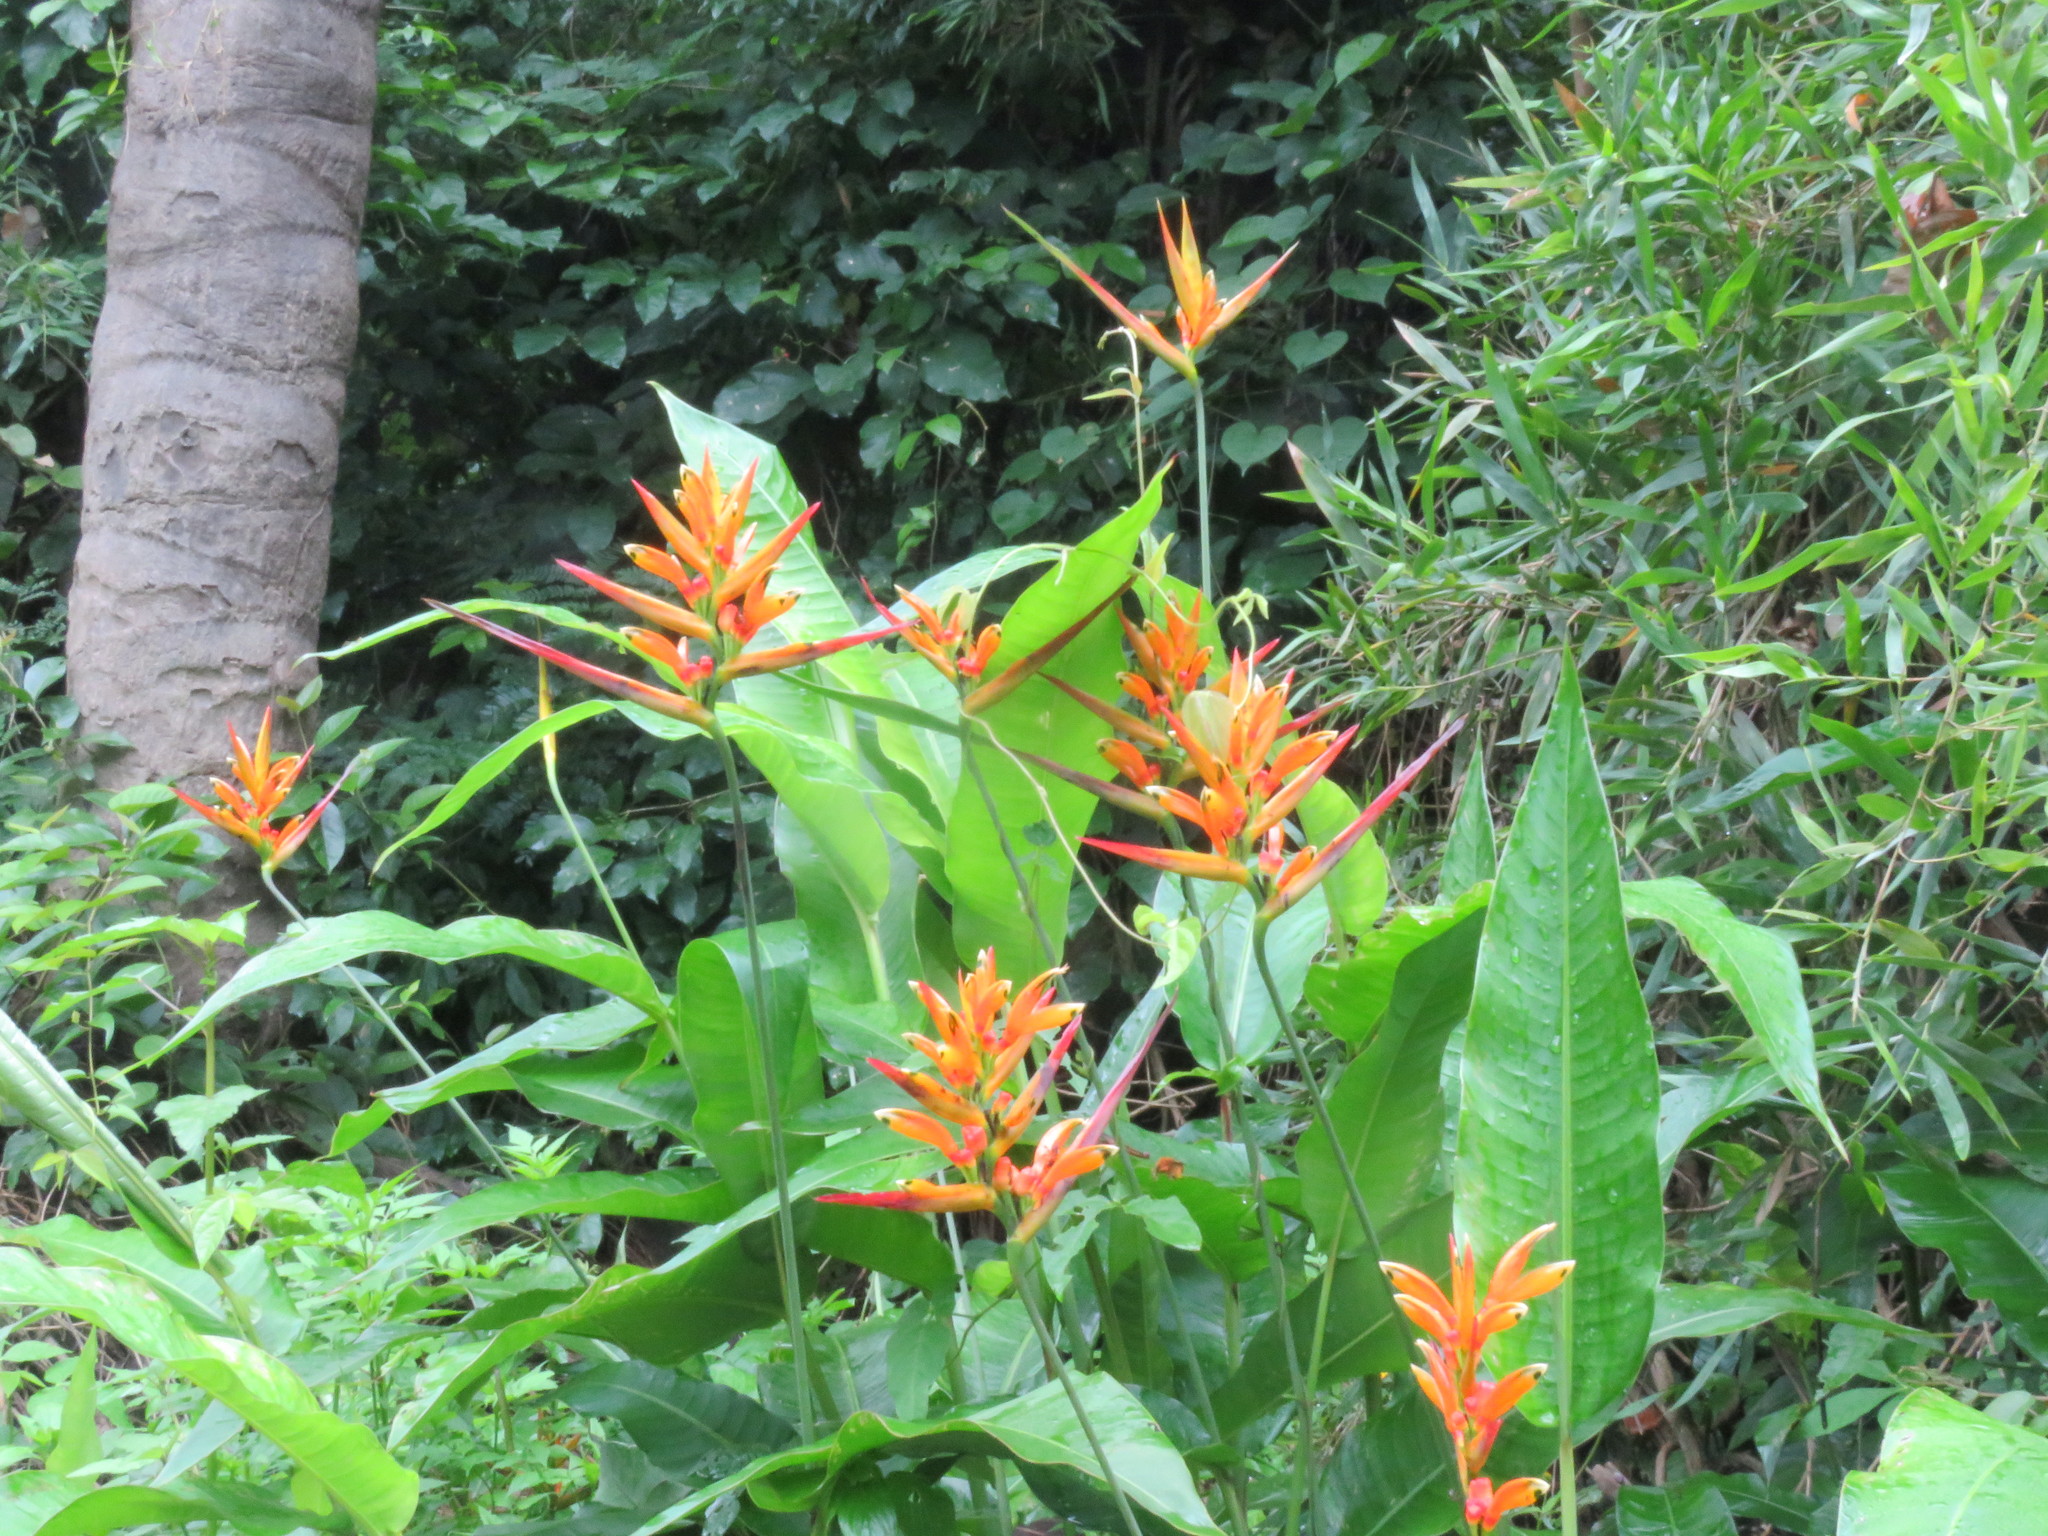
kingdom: Plantae
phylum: Tracheophyta
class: Liliopsida
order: Zingiberales
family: Heliconiaceae
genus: Heliconia
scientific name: Heliconia hirsuta
